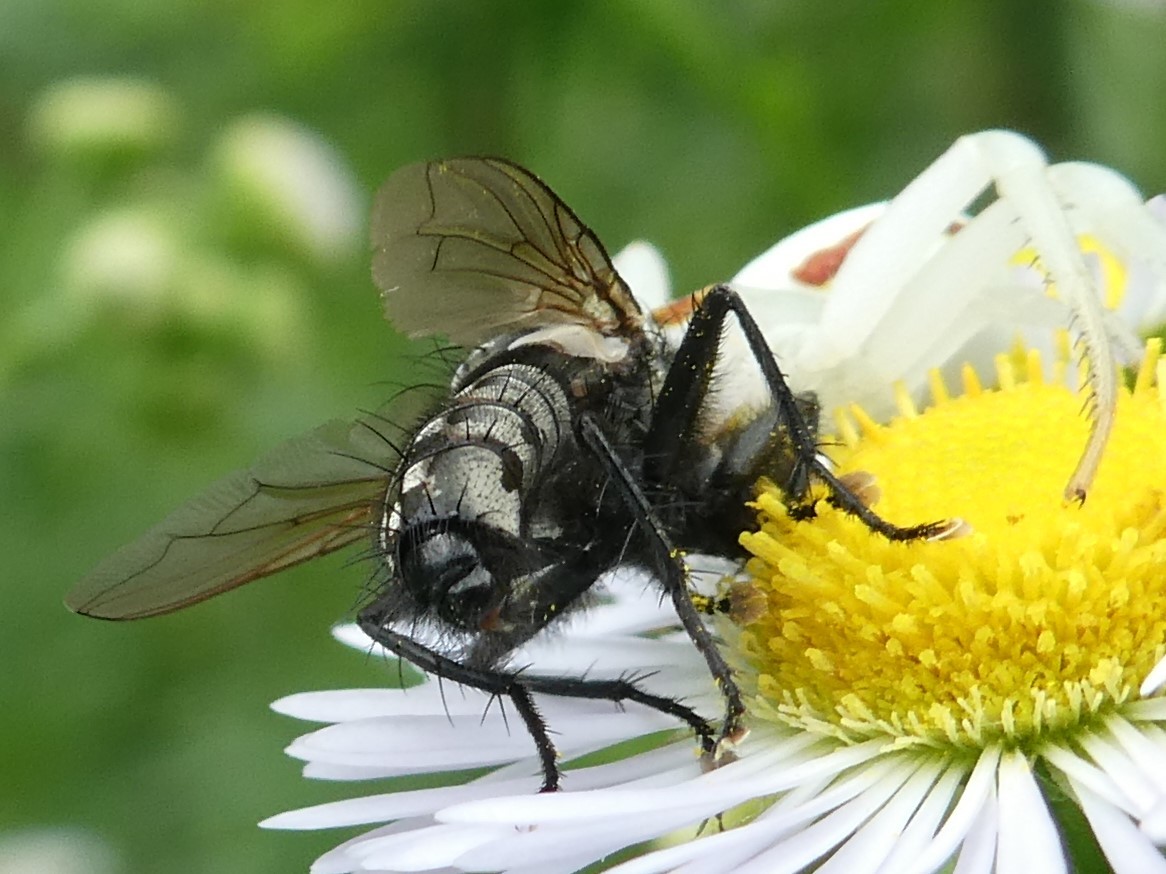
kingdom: Animalia
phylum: Arthropoda
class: Arachnida
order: Araneae
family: Thomisidae
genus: Misumena
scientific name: Misumena vatia
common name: Goldenrod crab spider
